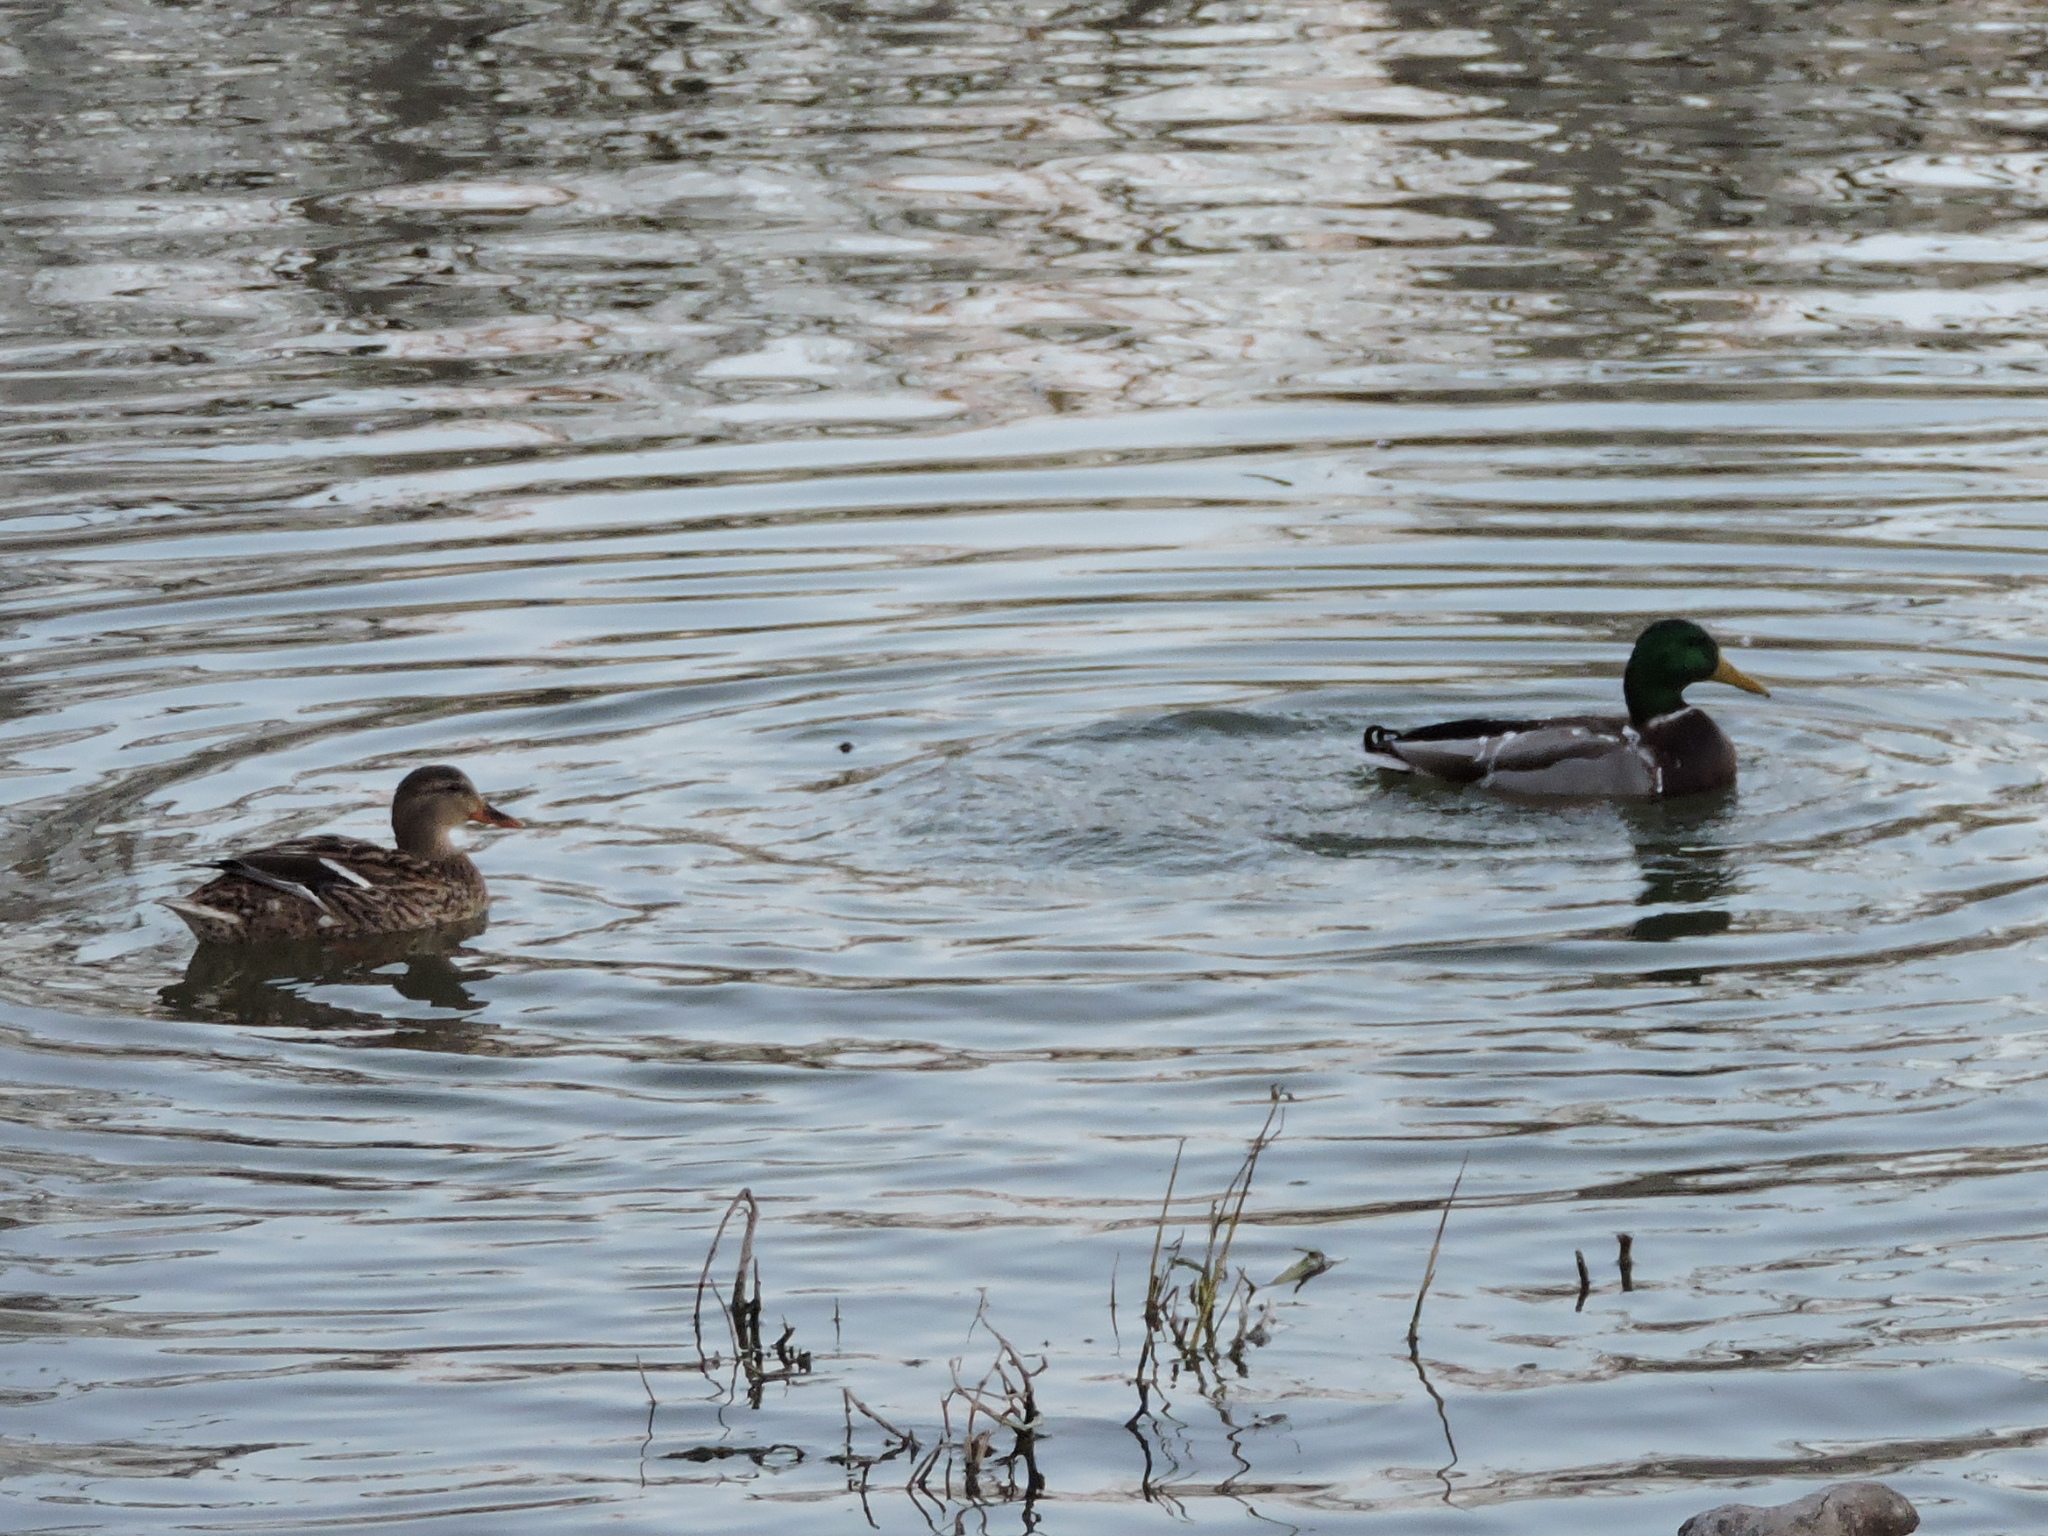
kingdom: Animalia
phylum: Chordata
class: Aves
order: Anseriformes
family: Anatidae
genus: Anas
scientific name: Anas platyrhynchos
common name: Mallard
